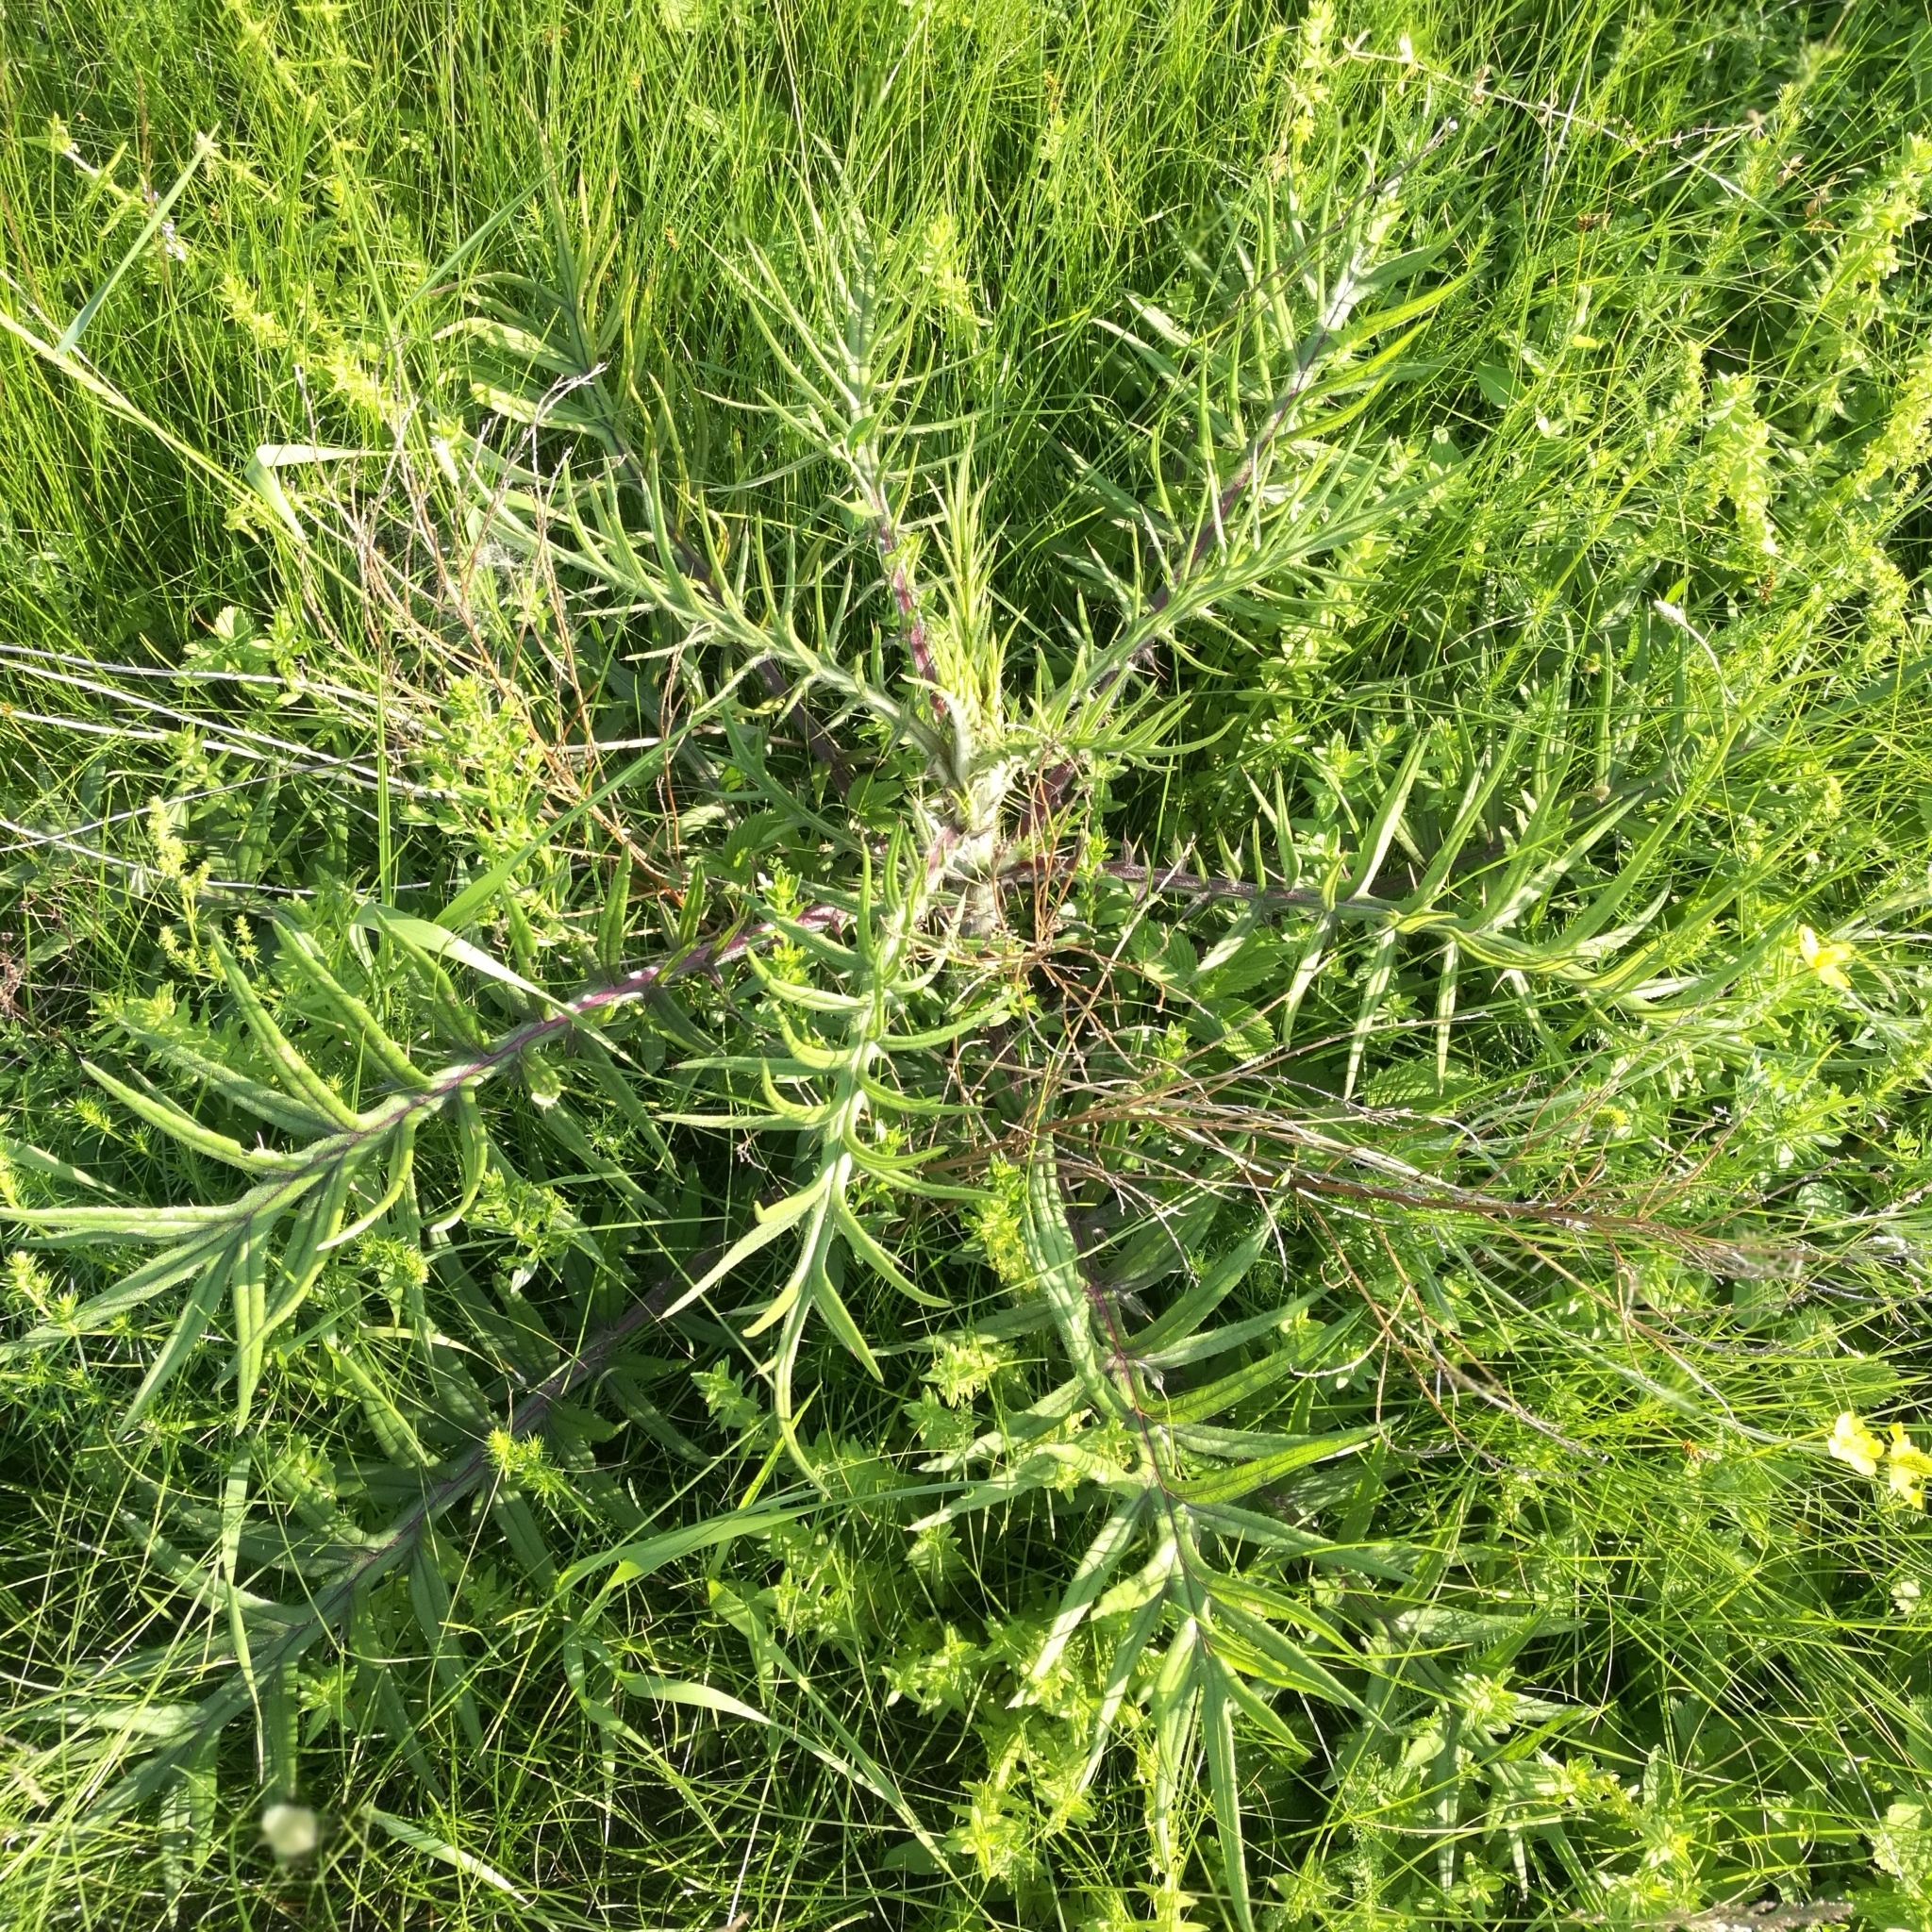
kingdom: Plantae
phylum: Tracheophyta
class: Magnoliopsida
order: Asterales
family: Asteraceae
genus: Lophiolepis
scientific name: Lophiolepis decussata
